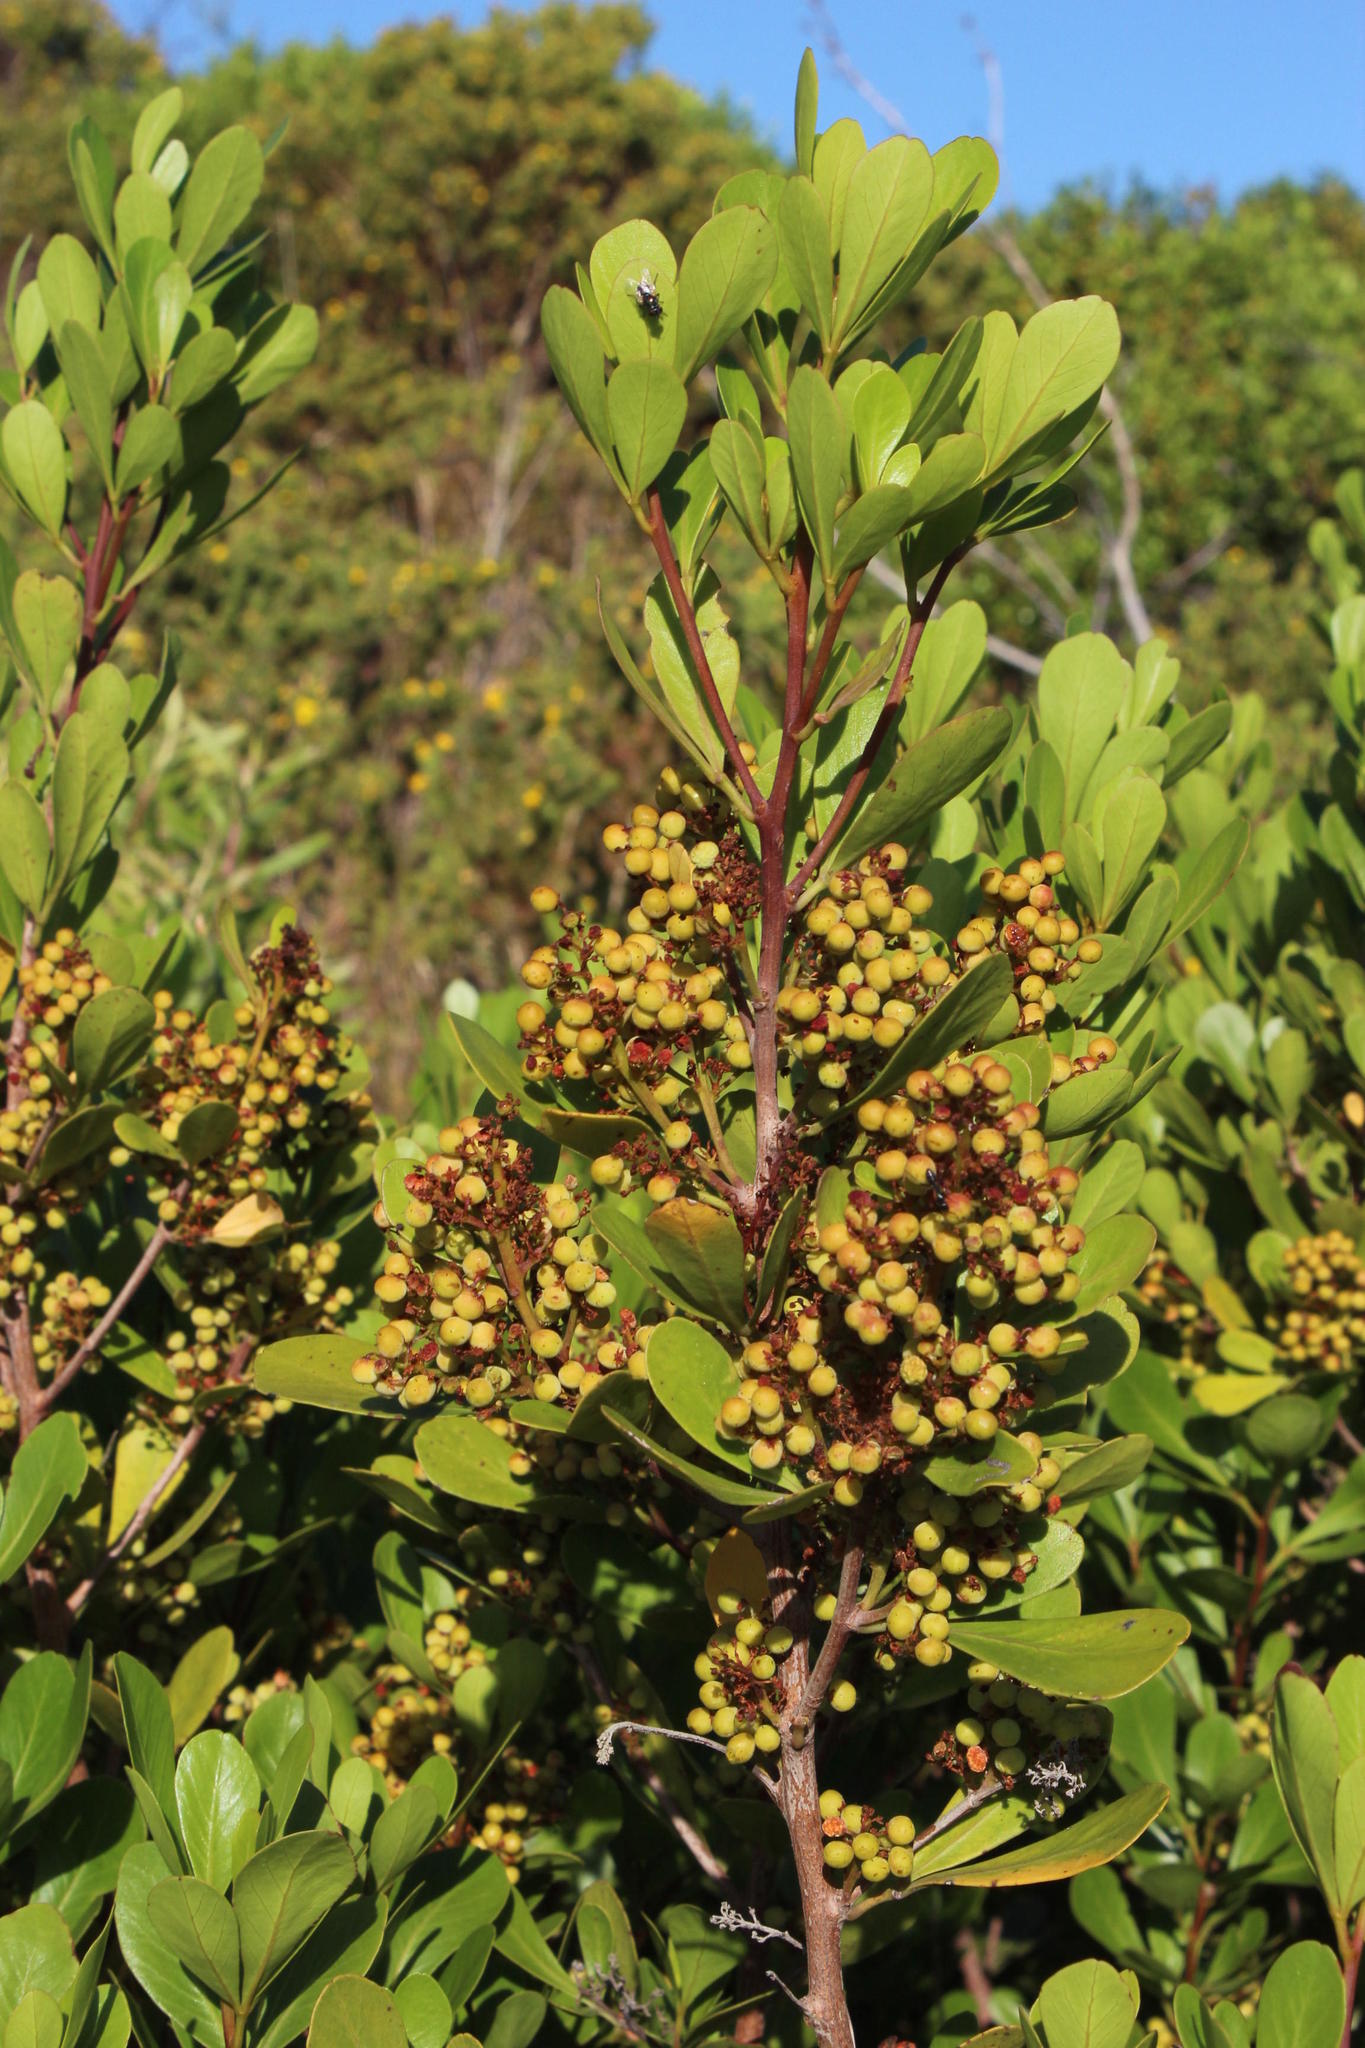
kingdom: Plantae
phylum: Tracheophyta
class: Magnoliopsida
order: Sapindales
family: Anacardiaceae
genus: Searsia
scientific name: Searsia lucida
